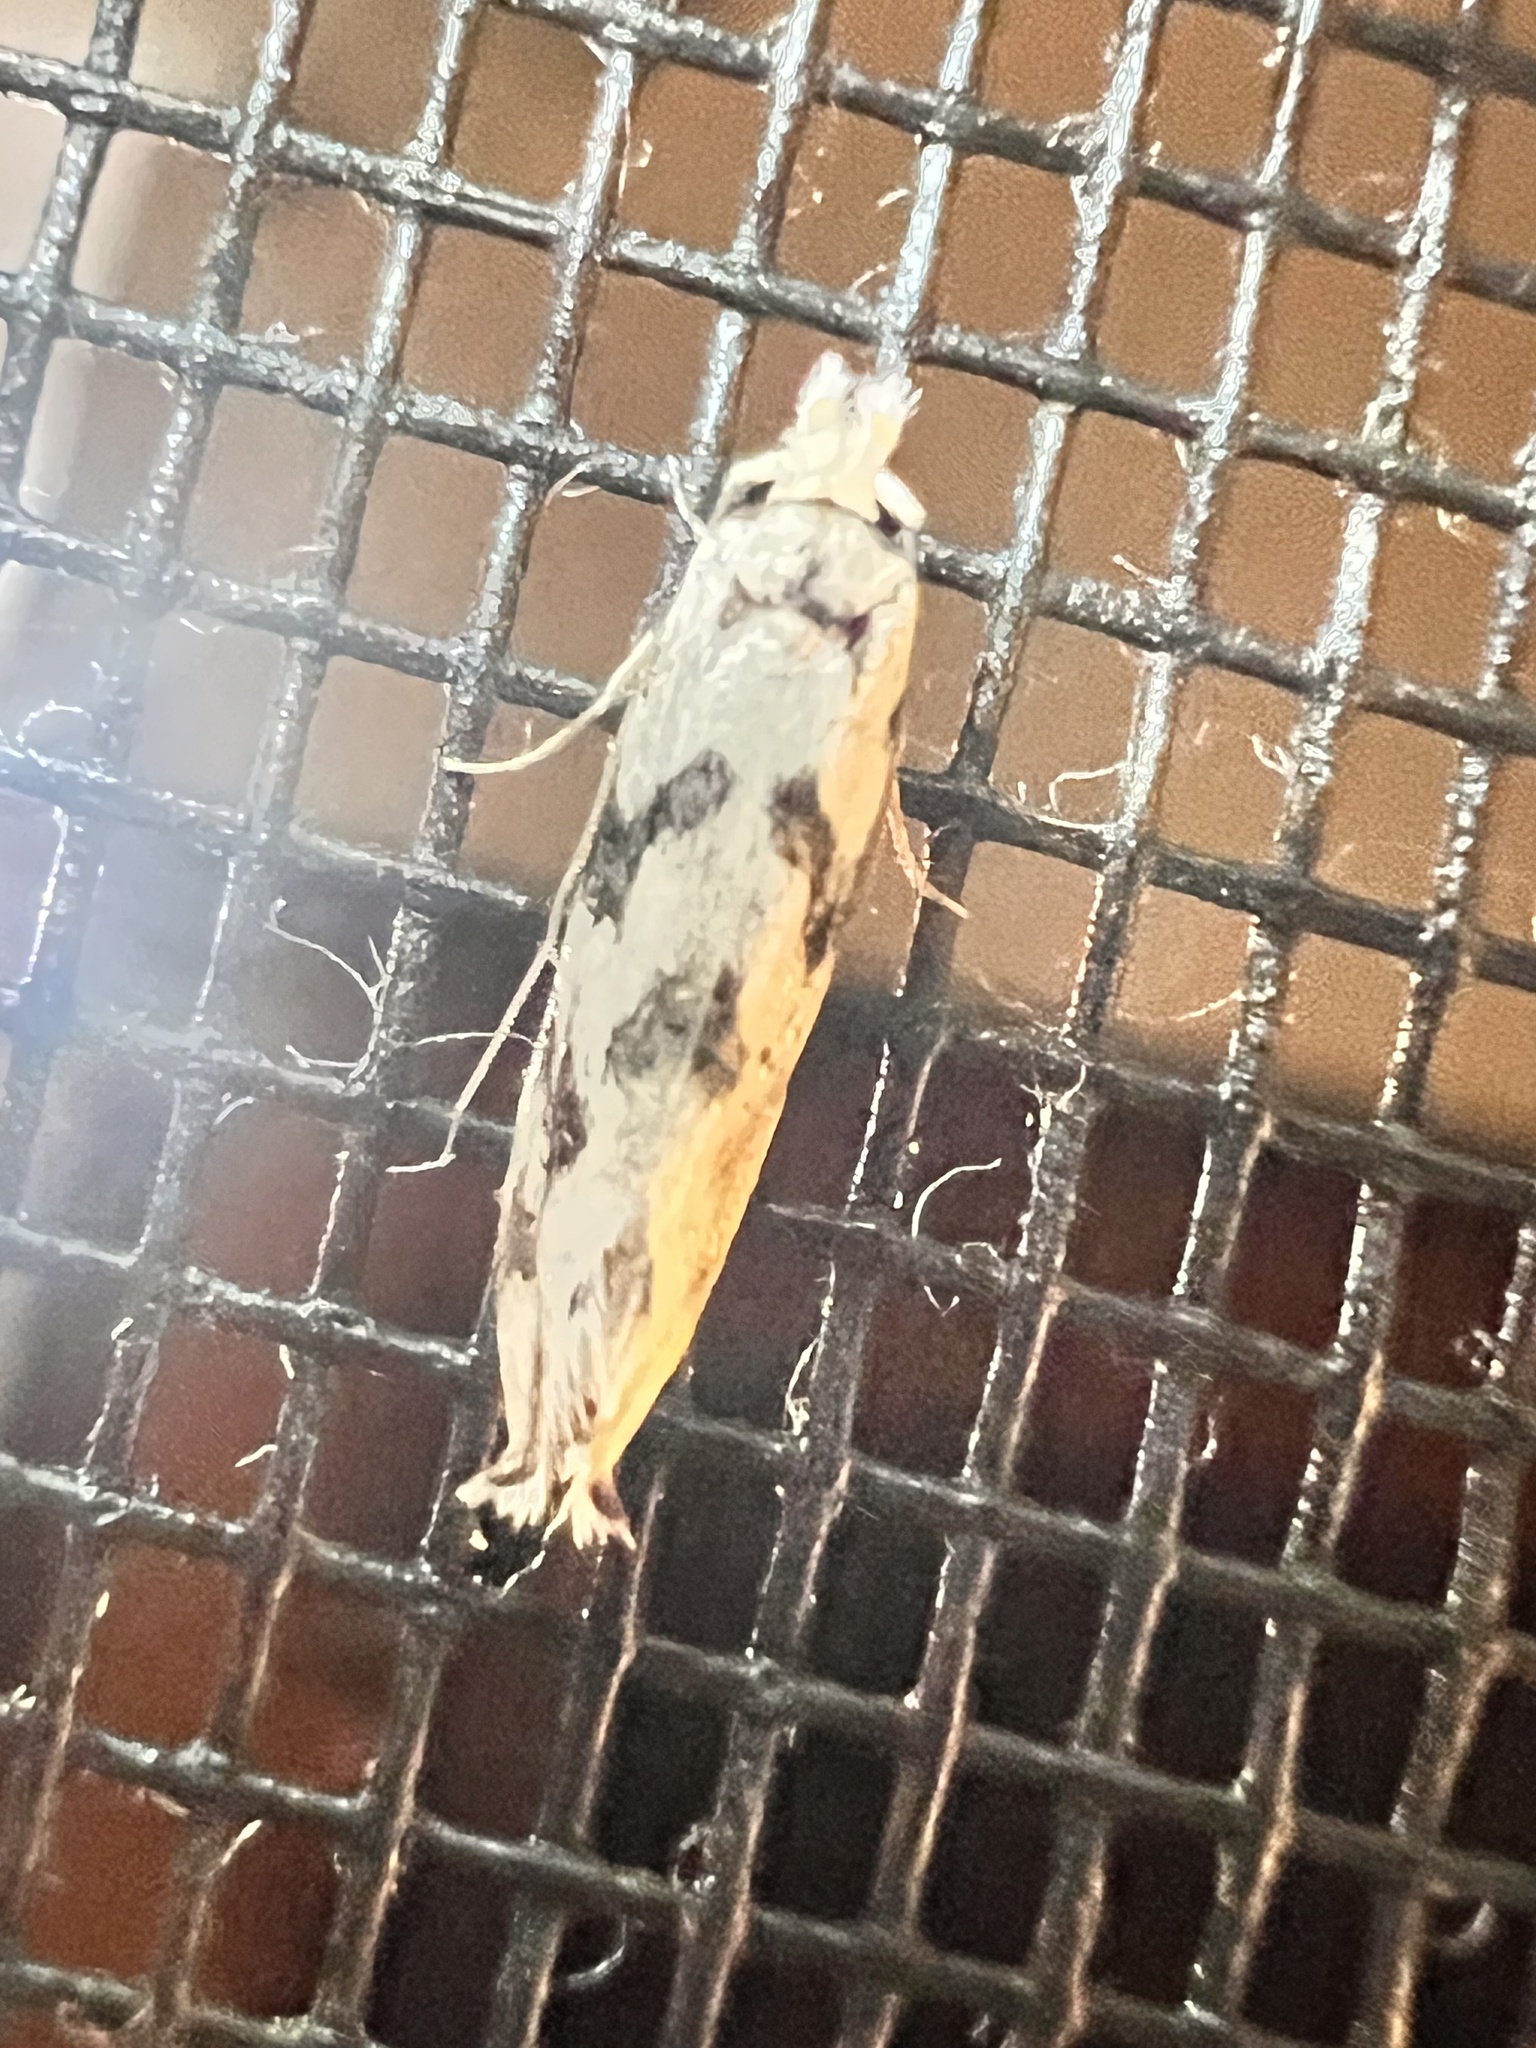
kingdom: Animalia
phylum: Arthropoda
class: Insecta
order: Lepidoptera
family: Tineidae
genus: Erechthias
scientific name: Erechthias simulans
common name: Fungus moth
